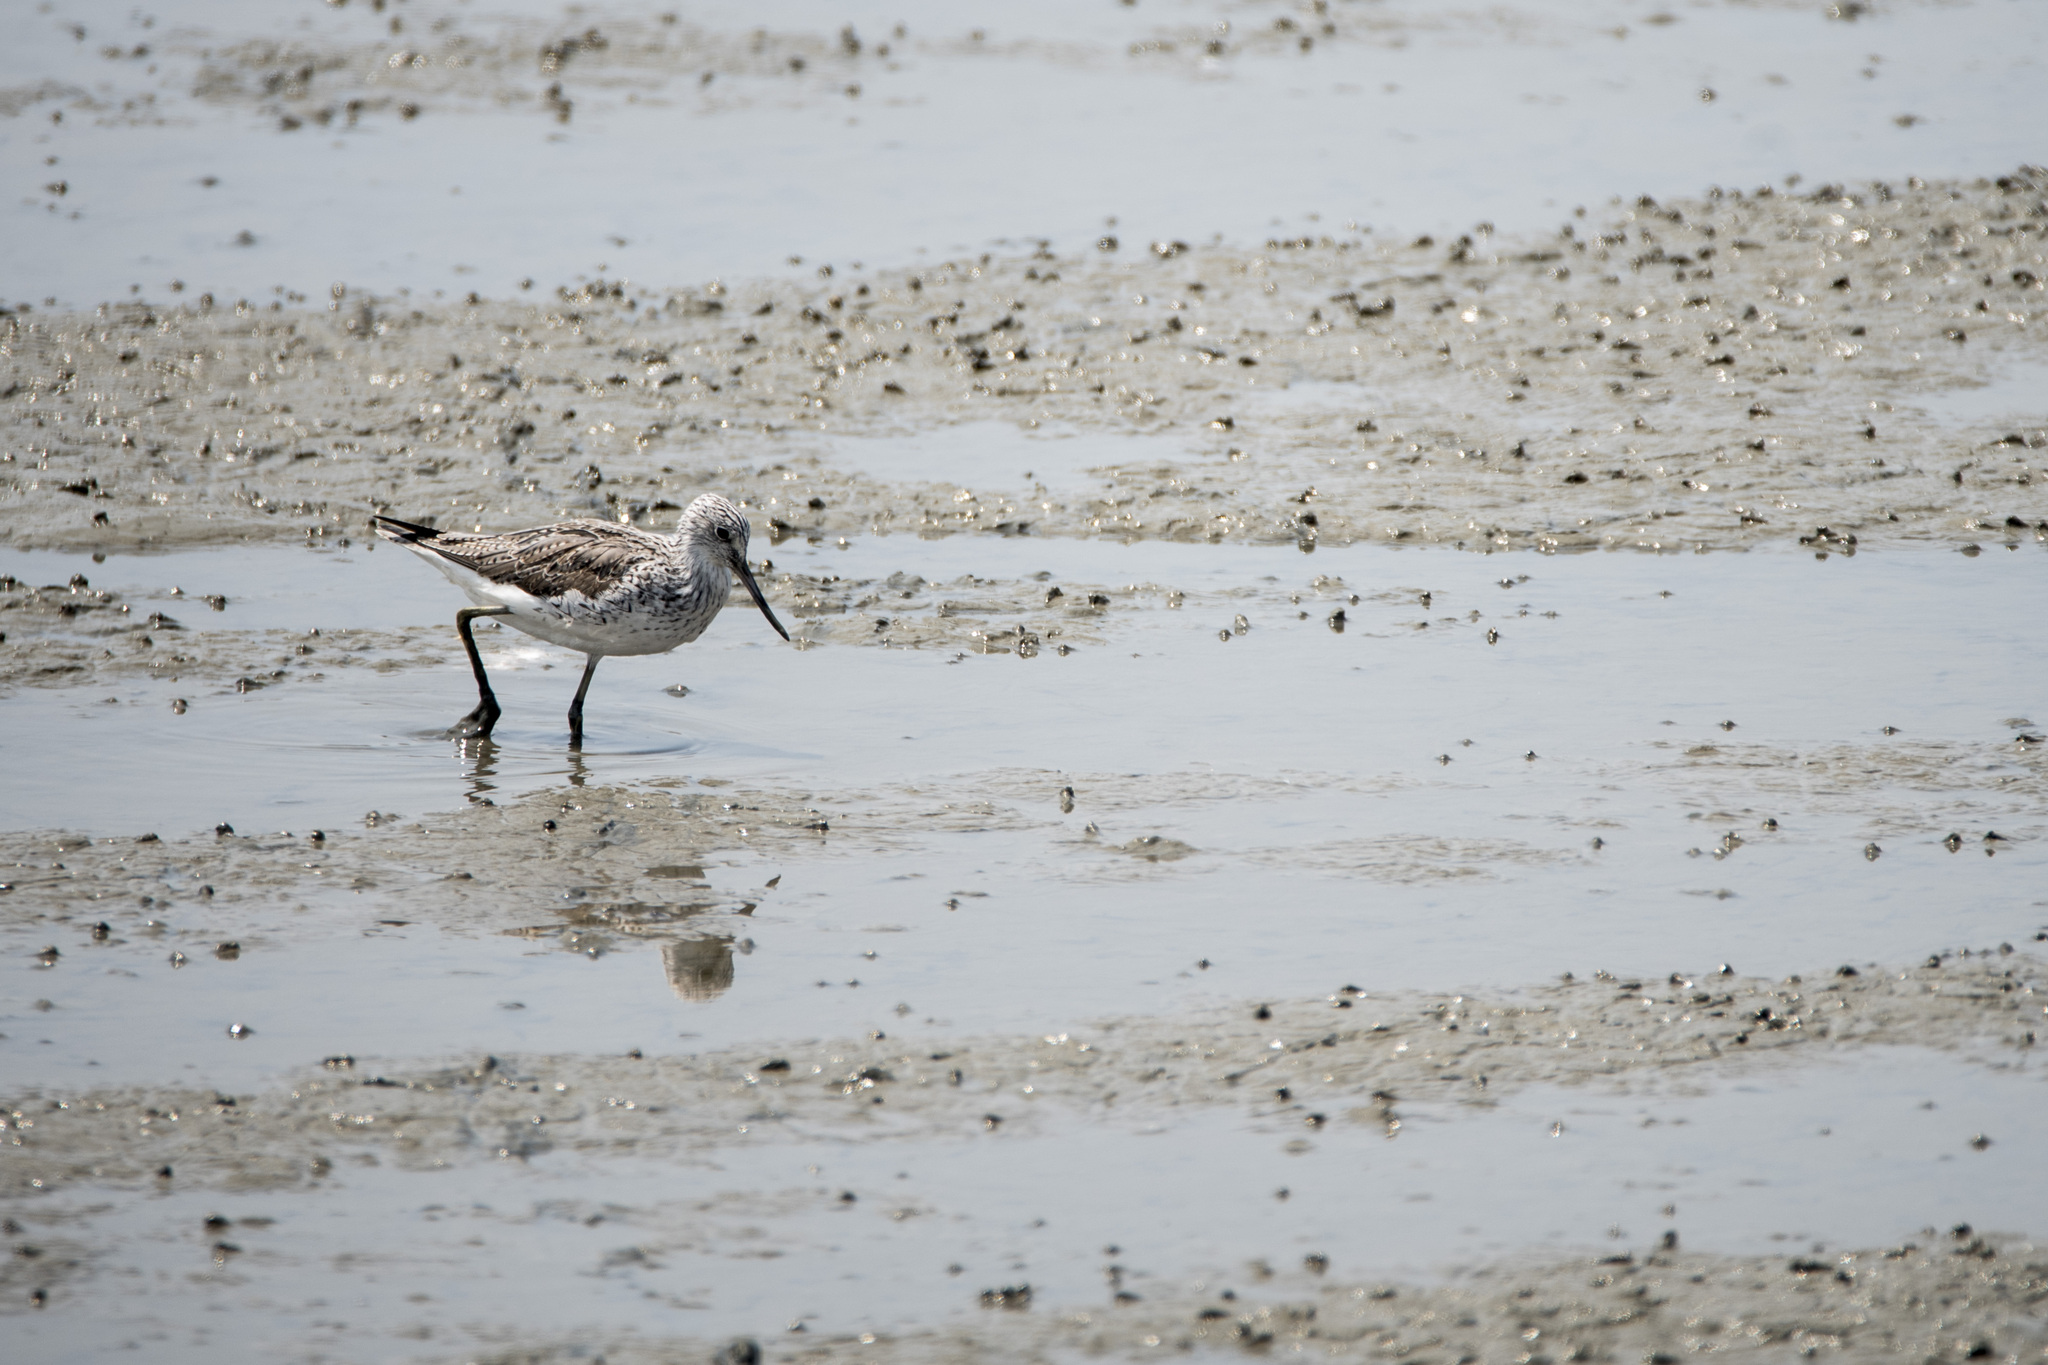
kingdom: Animalia
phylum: Chordata
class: Aves
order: Charadriiformes
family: Scolopacidae
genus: Tringa
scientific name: Tringa nebularia
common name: Common greenshank
